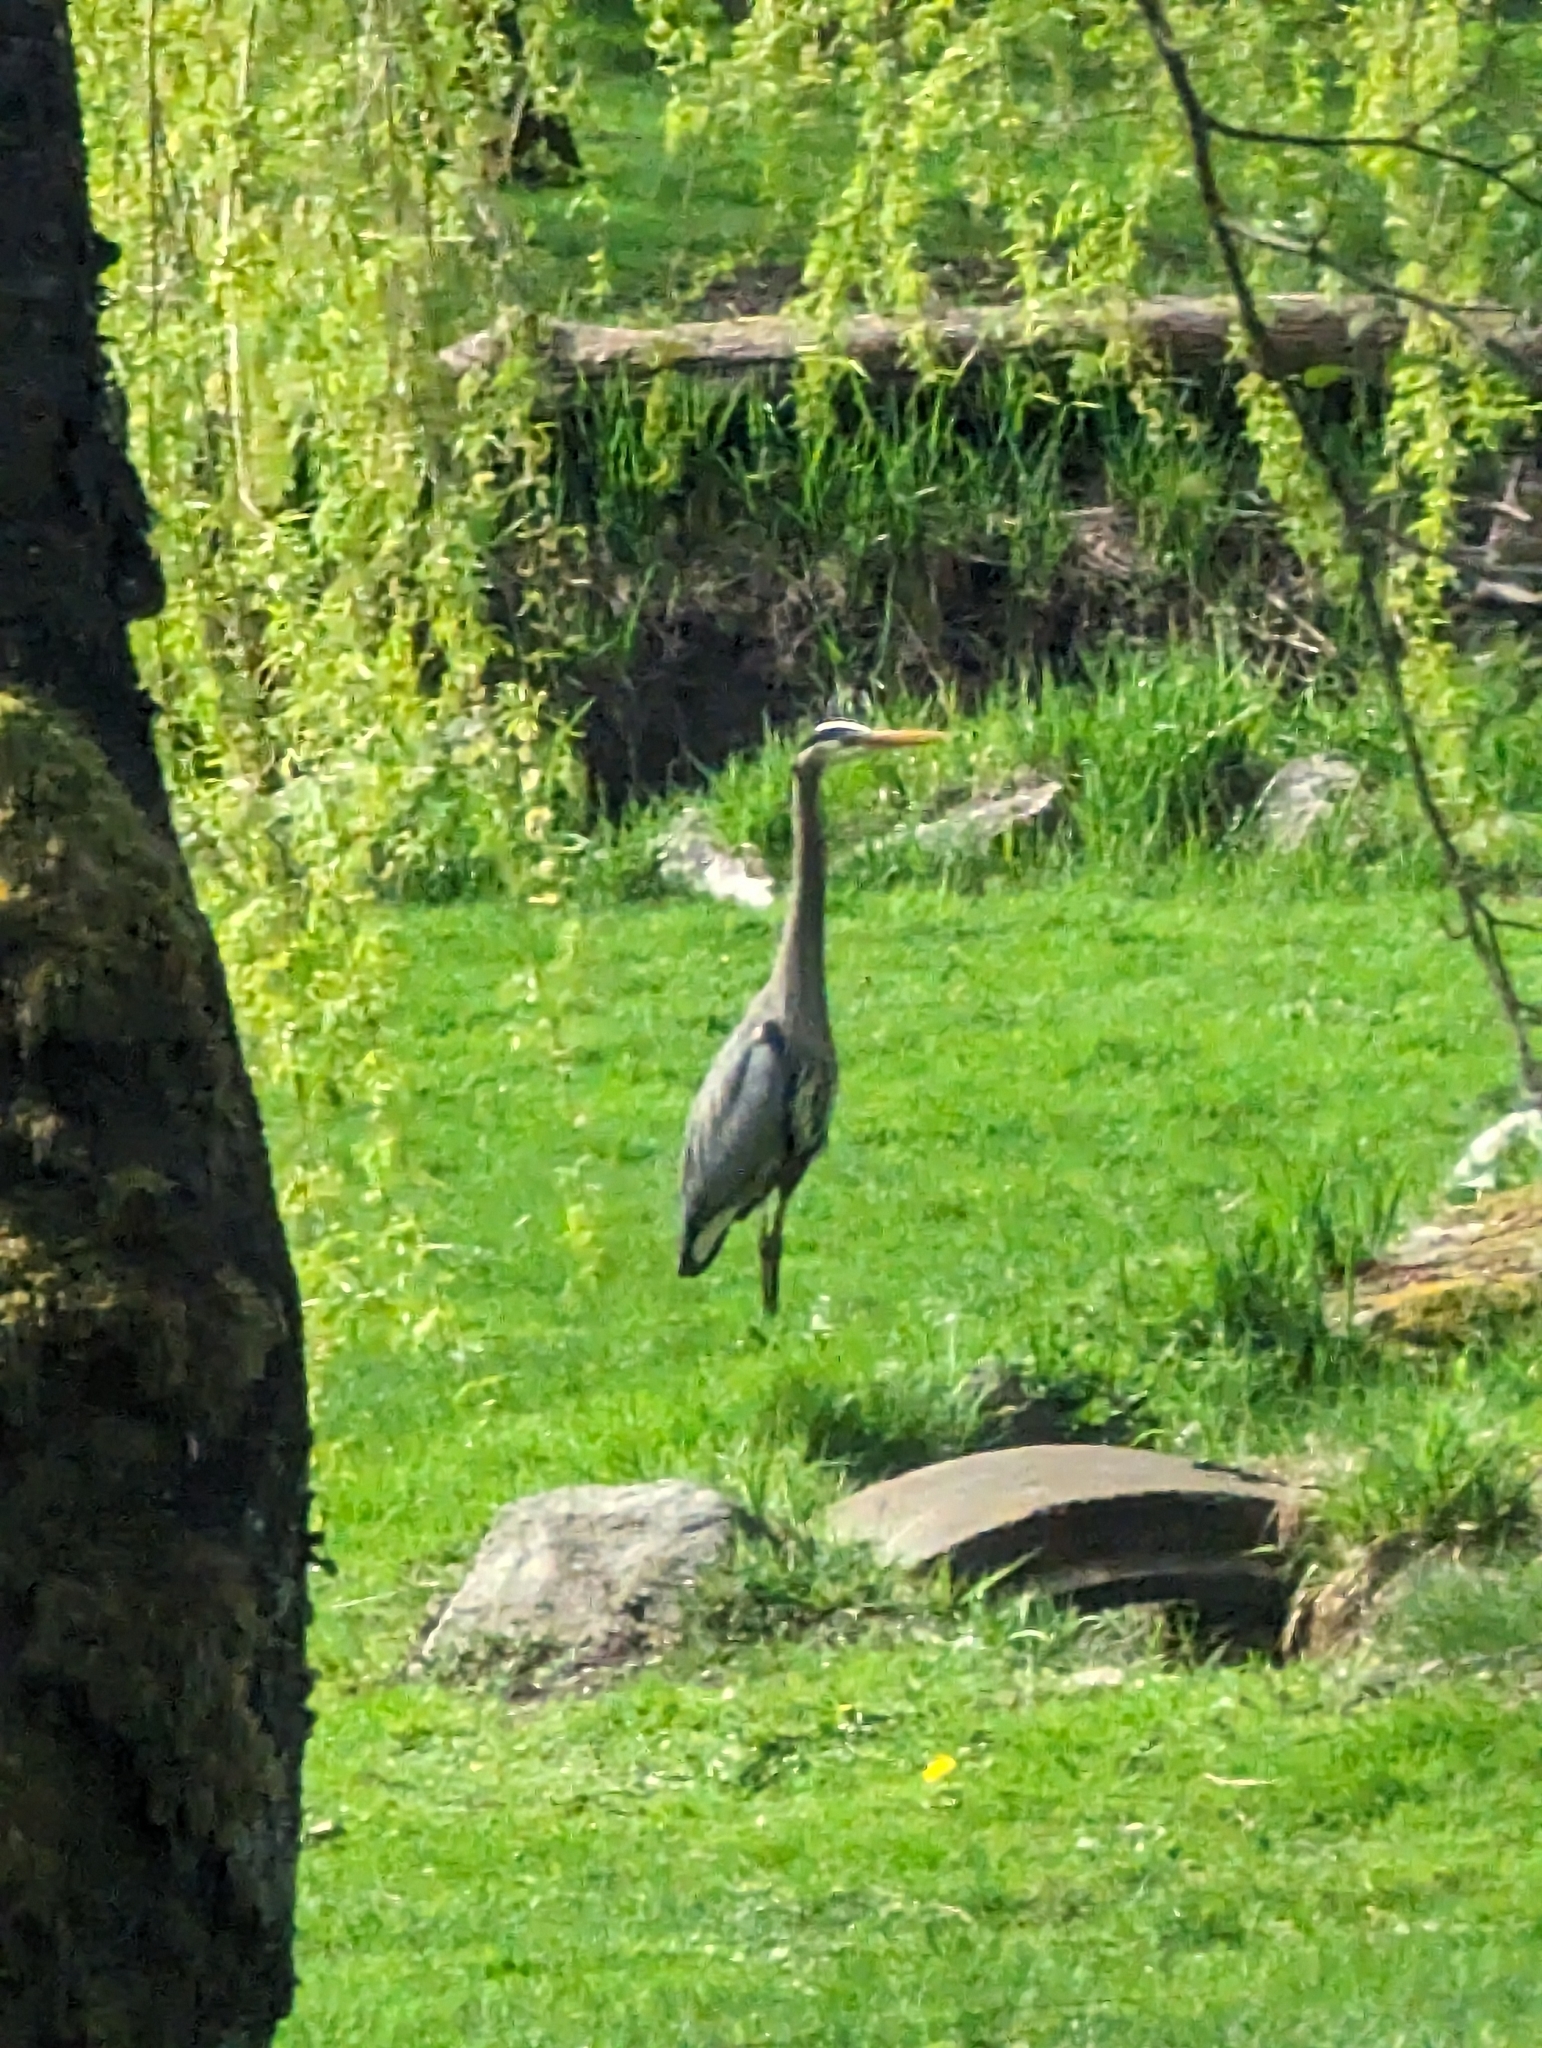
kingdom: Animalia
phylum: Chordata
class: Aves
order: Pelecaniformes
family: Ardeidae
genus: Ardea
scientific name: Ardea herodias
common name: Great blue heron
